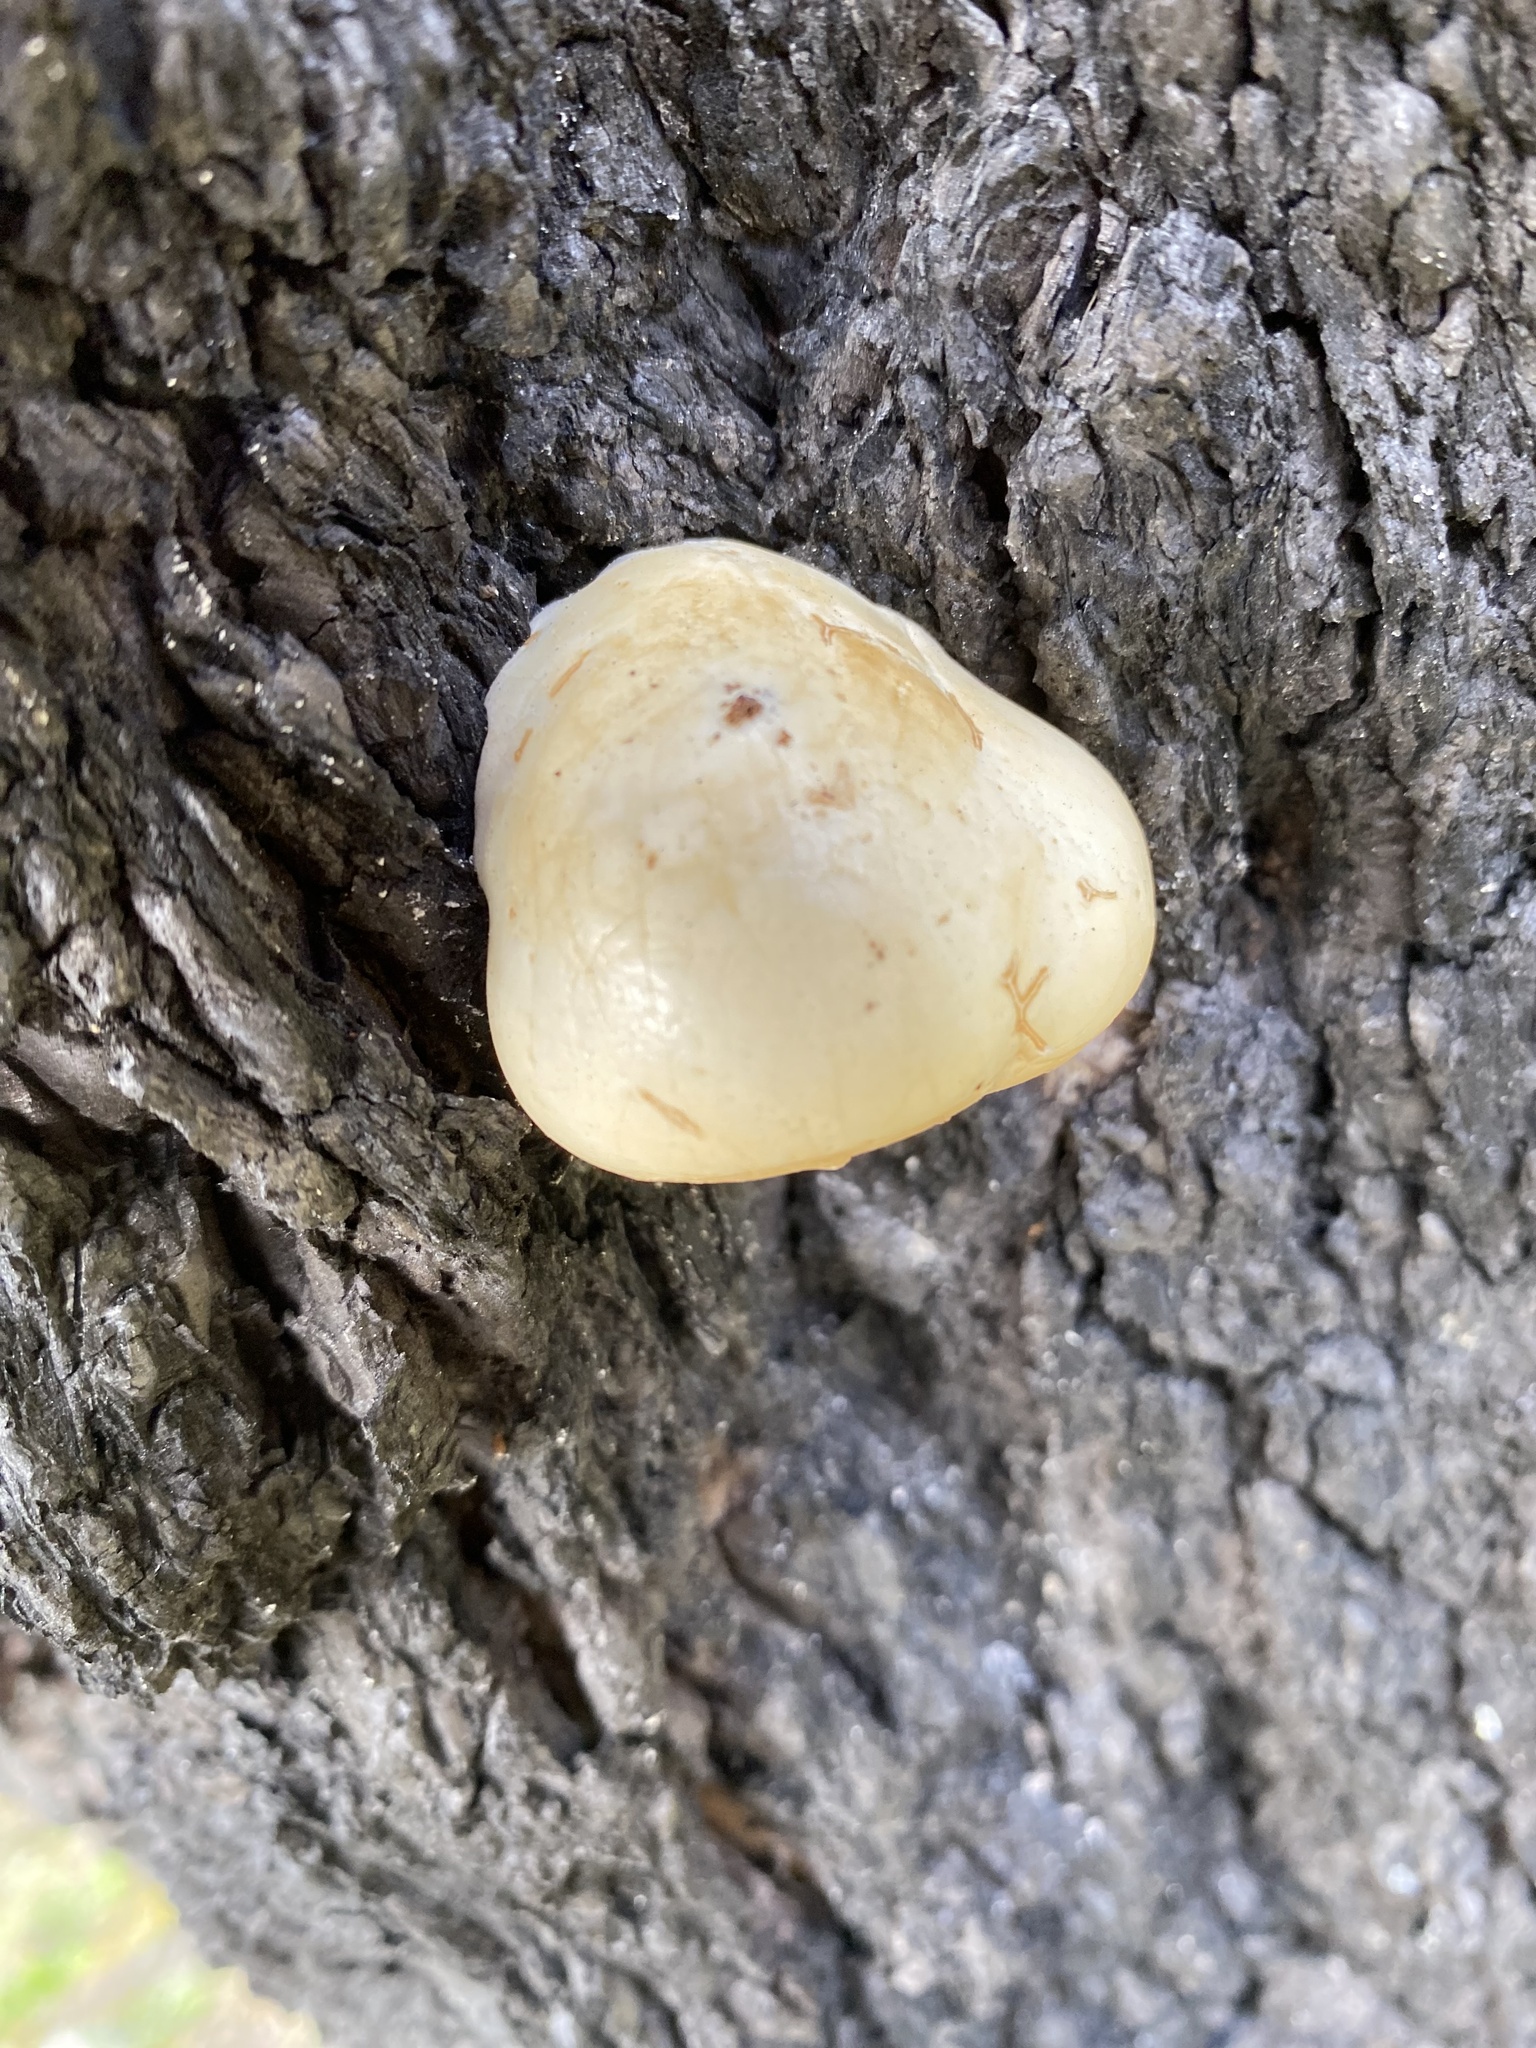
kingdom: Fungi
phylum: Basidiomycota
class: Agaricomycetes
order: Polyporales
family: Polyporaceae
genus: Cryptoporus
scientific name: Cryptoporus volvatus
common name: Veiled polypore
